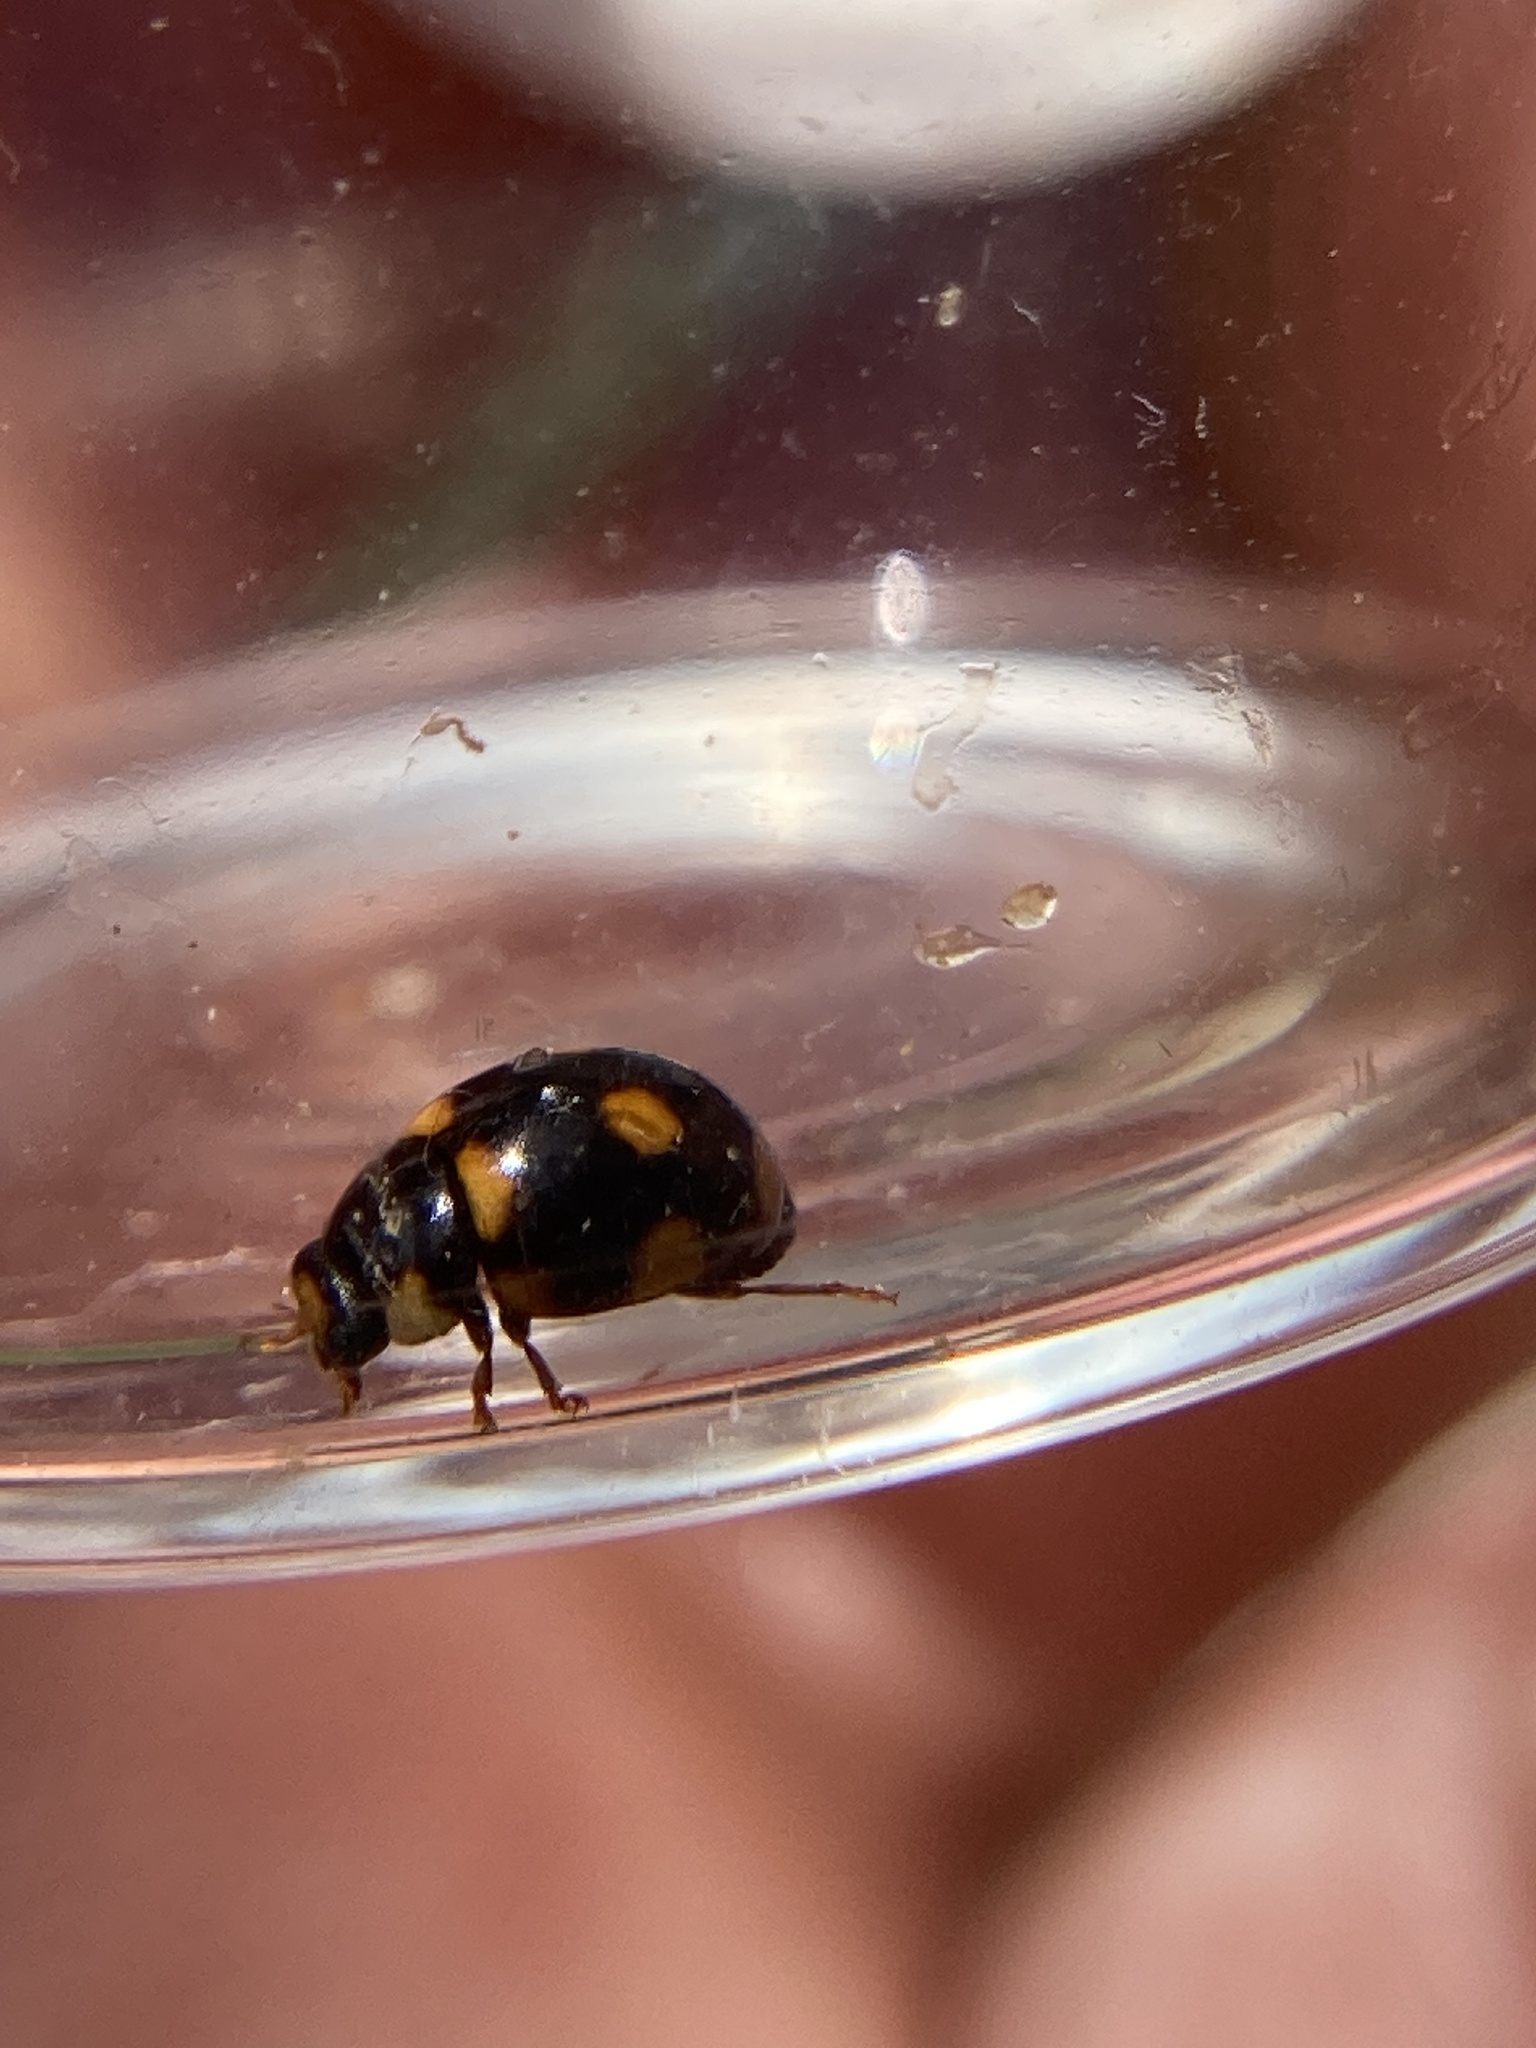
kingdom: Animalia
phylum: Arthropoda
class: Insecta
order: Coleoptera
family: Coccinellidae
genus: Brachiacantha
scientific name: Brachiacantha ursina
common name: Ursine spurleg lady beetle
